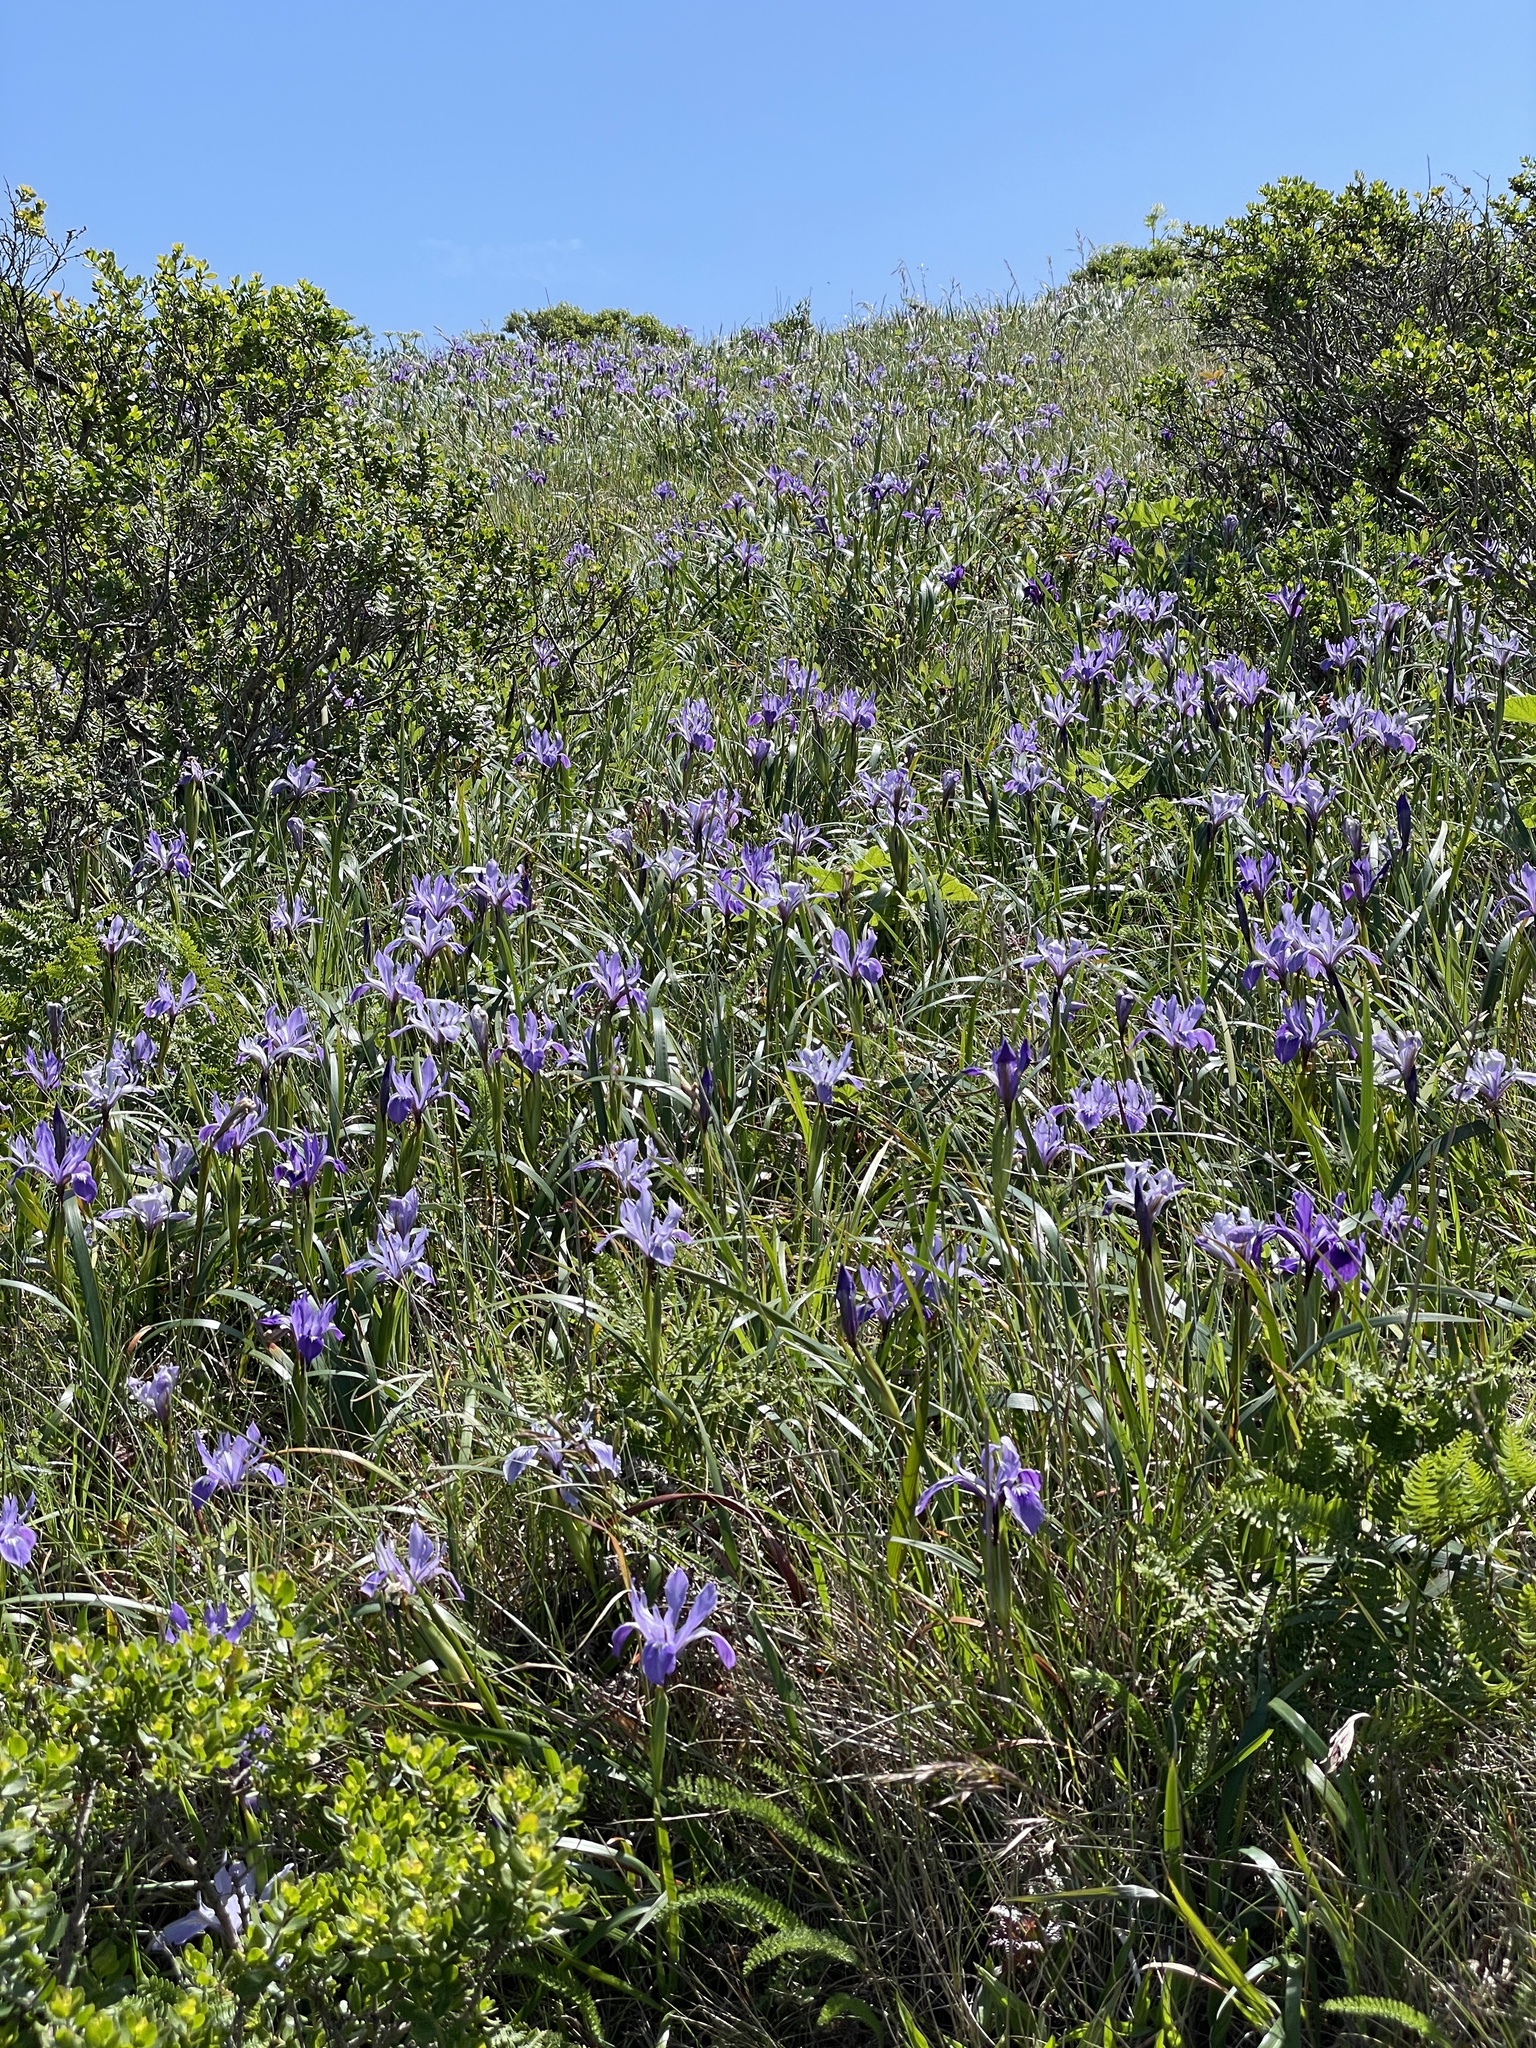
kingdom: Plantae
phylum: Tracheophyta
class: Liliopsida
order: Asparagales
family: Iridaceae
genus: Iris
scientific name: Iris douglasiana
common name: Marin iris
